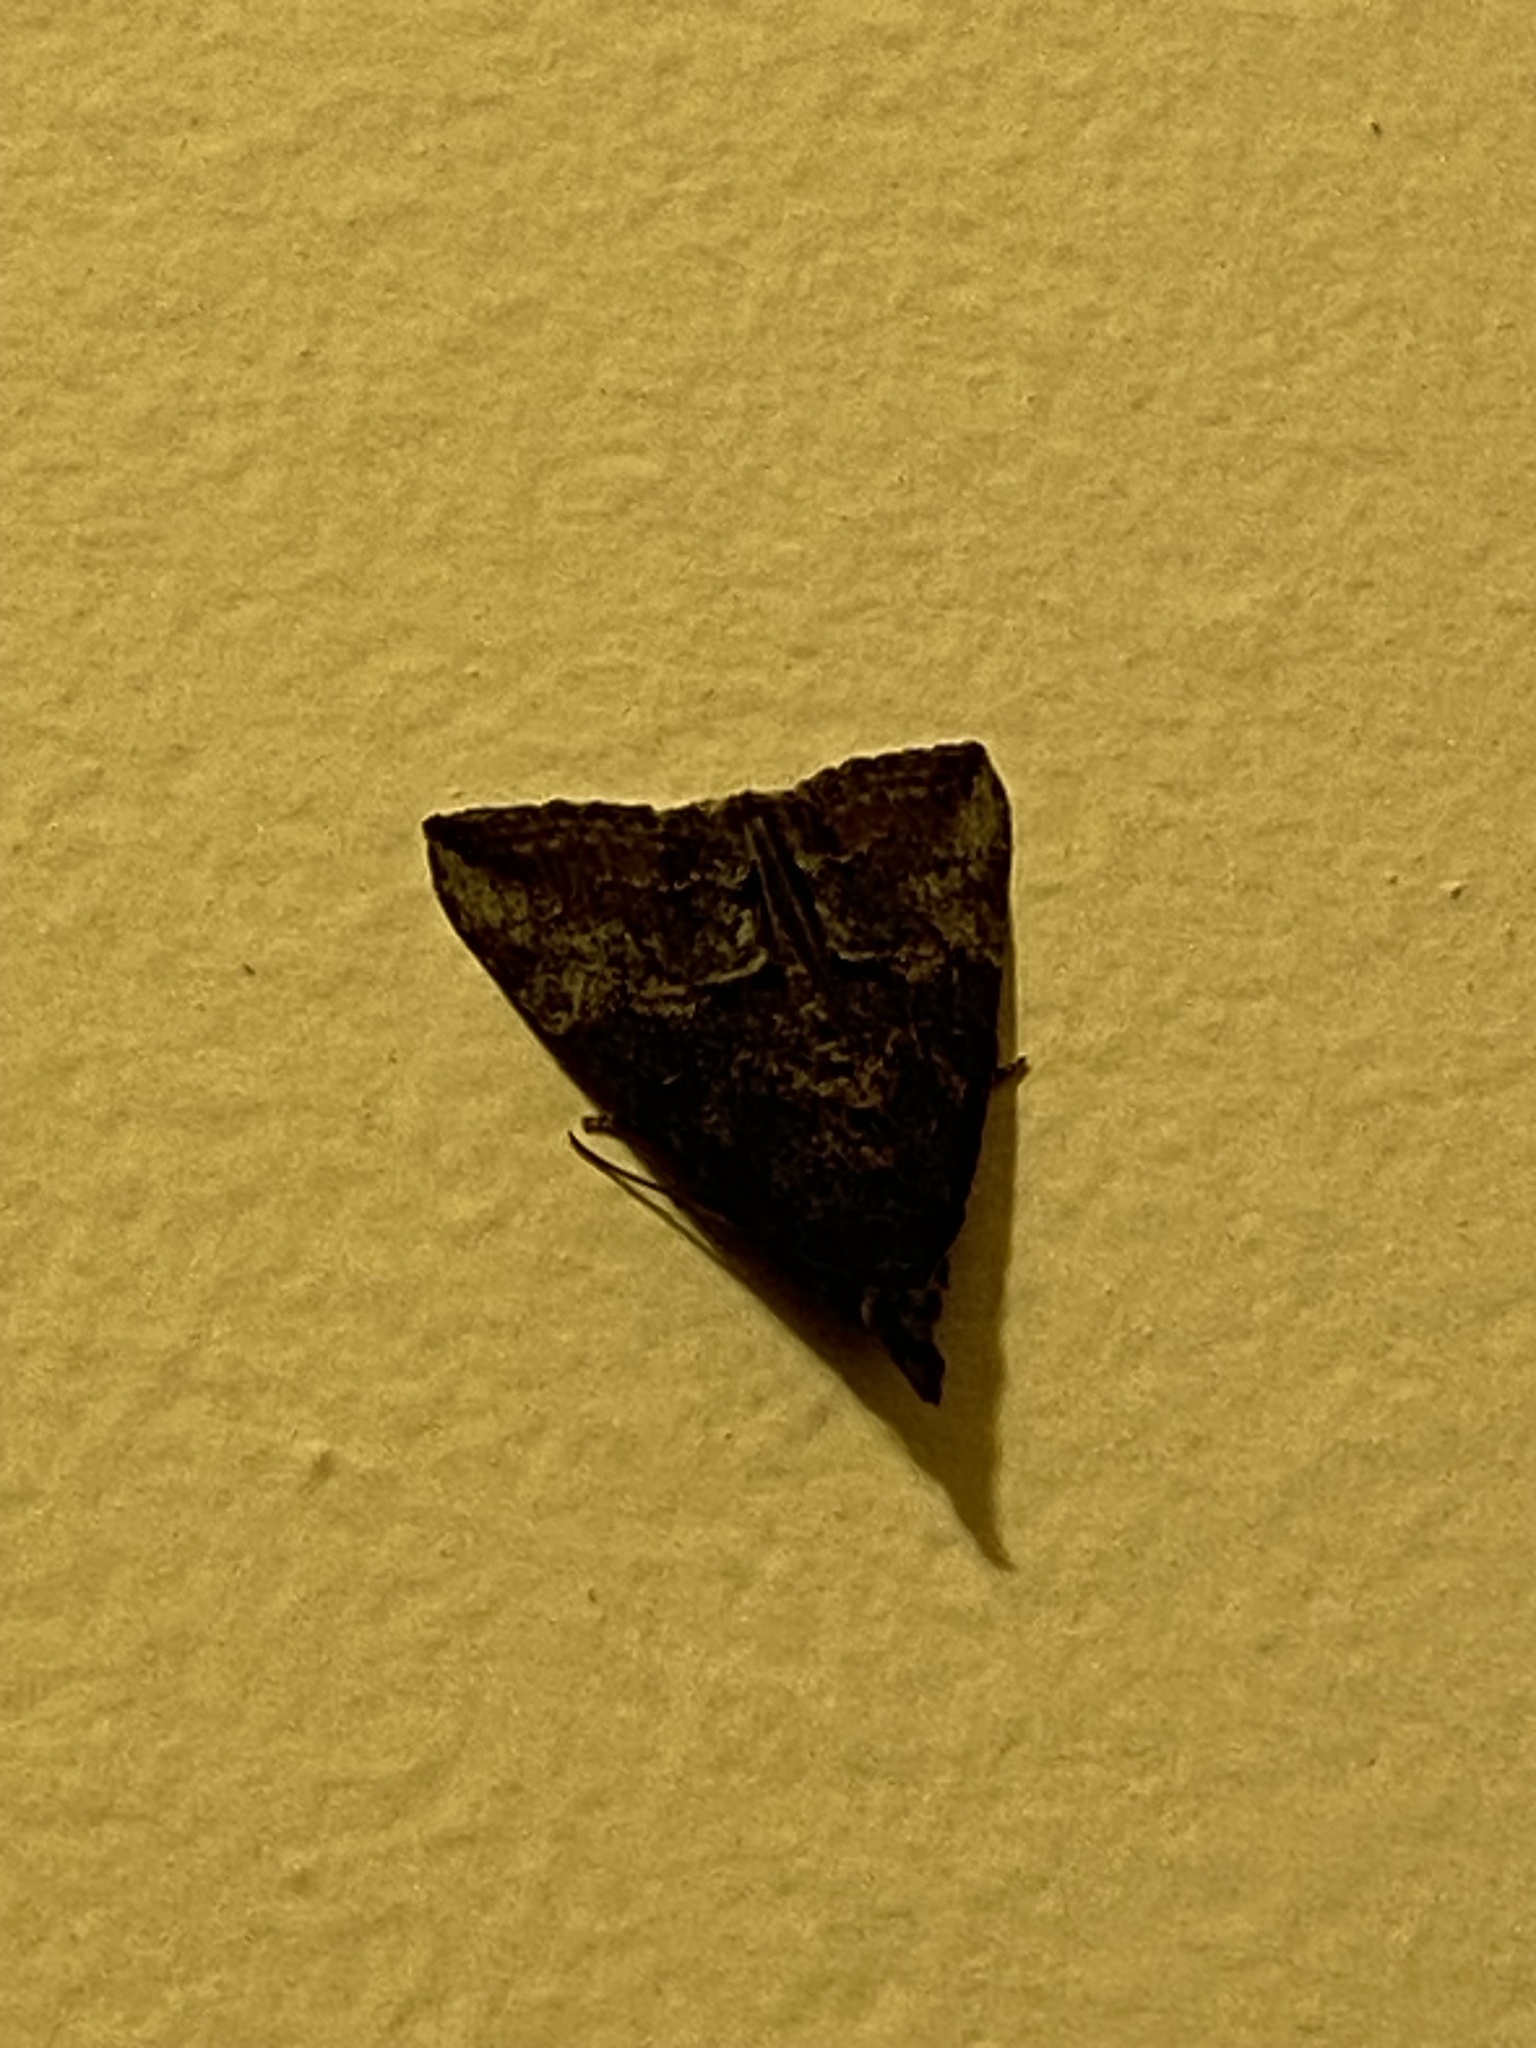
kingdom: Animalia
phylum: Arthropoda
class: Insecta
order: Lepidoptera
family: Erebidae
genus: Hypena
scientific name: Hypena scabra
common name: Green cloverworm
